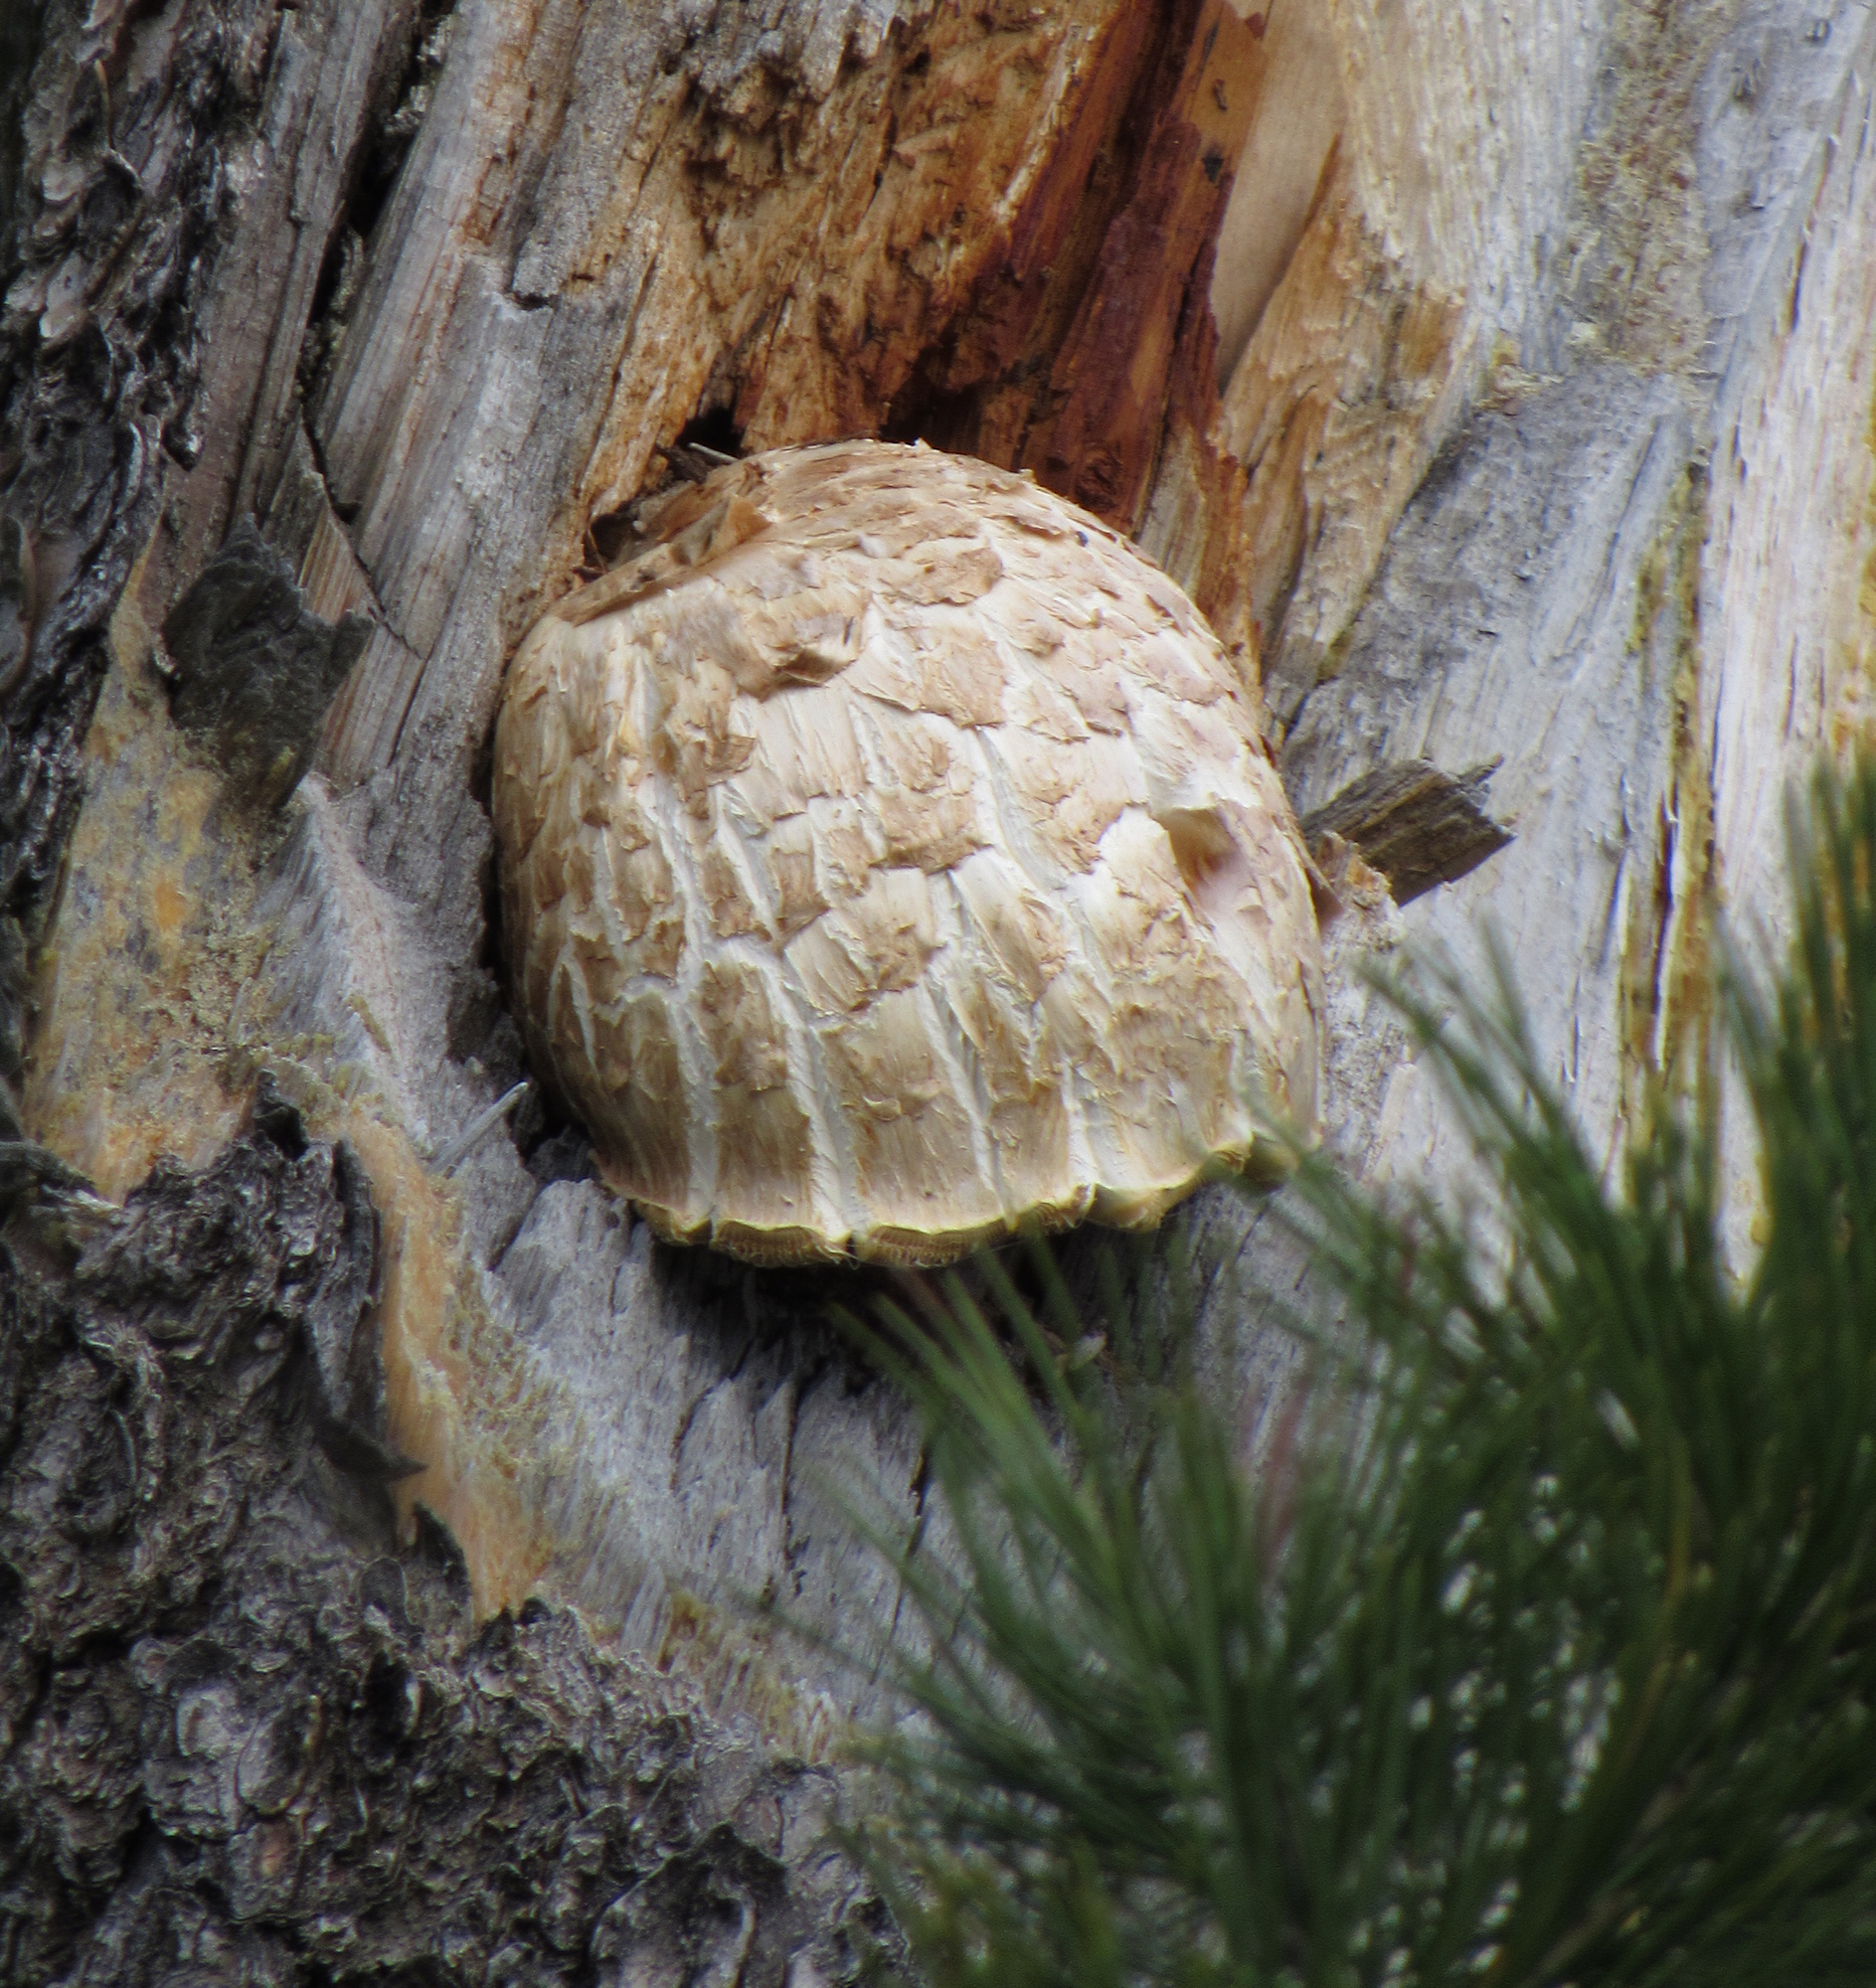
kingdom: Fungi
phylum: Basidiomycota
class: Agaricomycetes
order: Gloeophyllales
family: Gloeophyllaceae
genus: Neolentinus
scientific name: Neolentinus ponderosus
